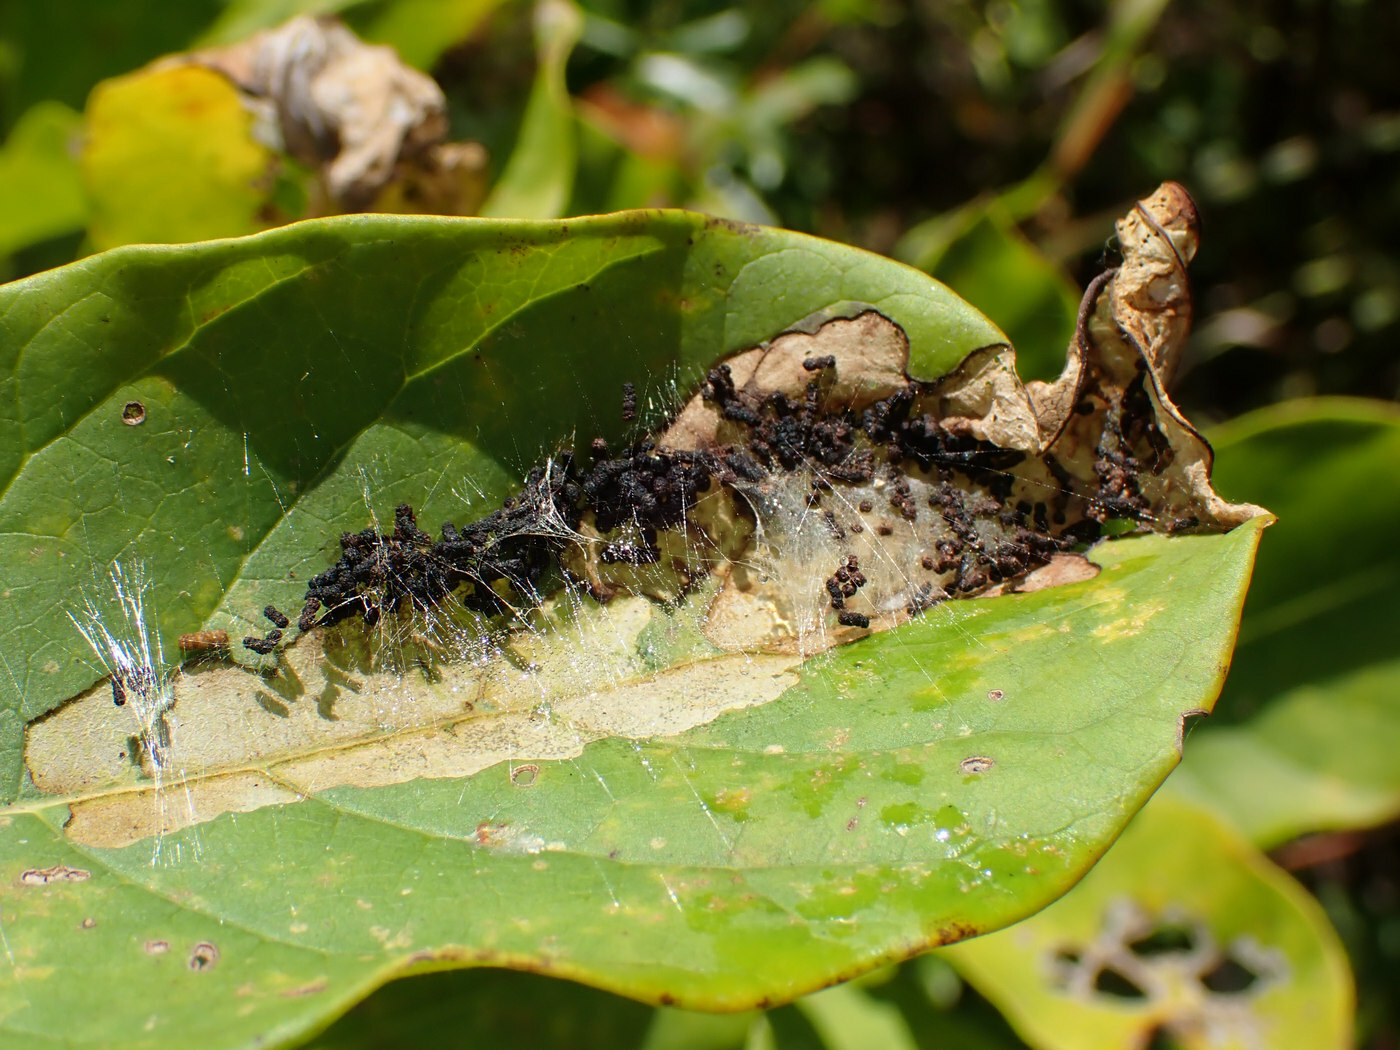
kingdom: Animalia
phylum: Arthropoda
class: Insecta
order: Lepidoptera
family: Crambidae
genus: Palpita
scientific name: Palpita illibalis
